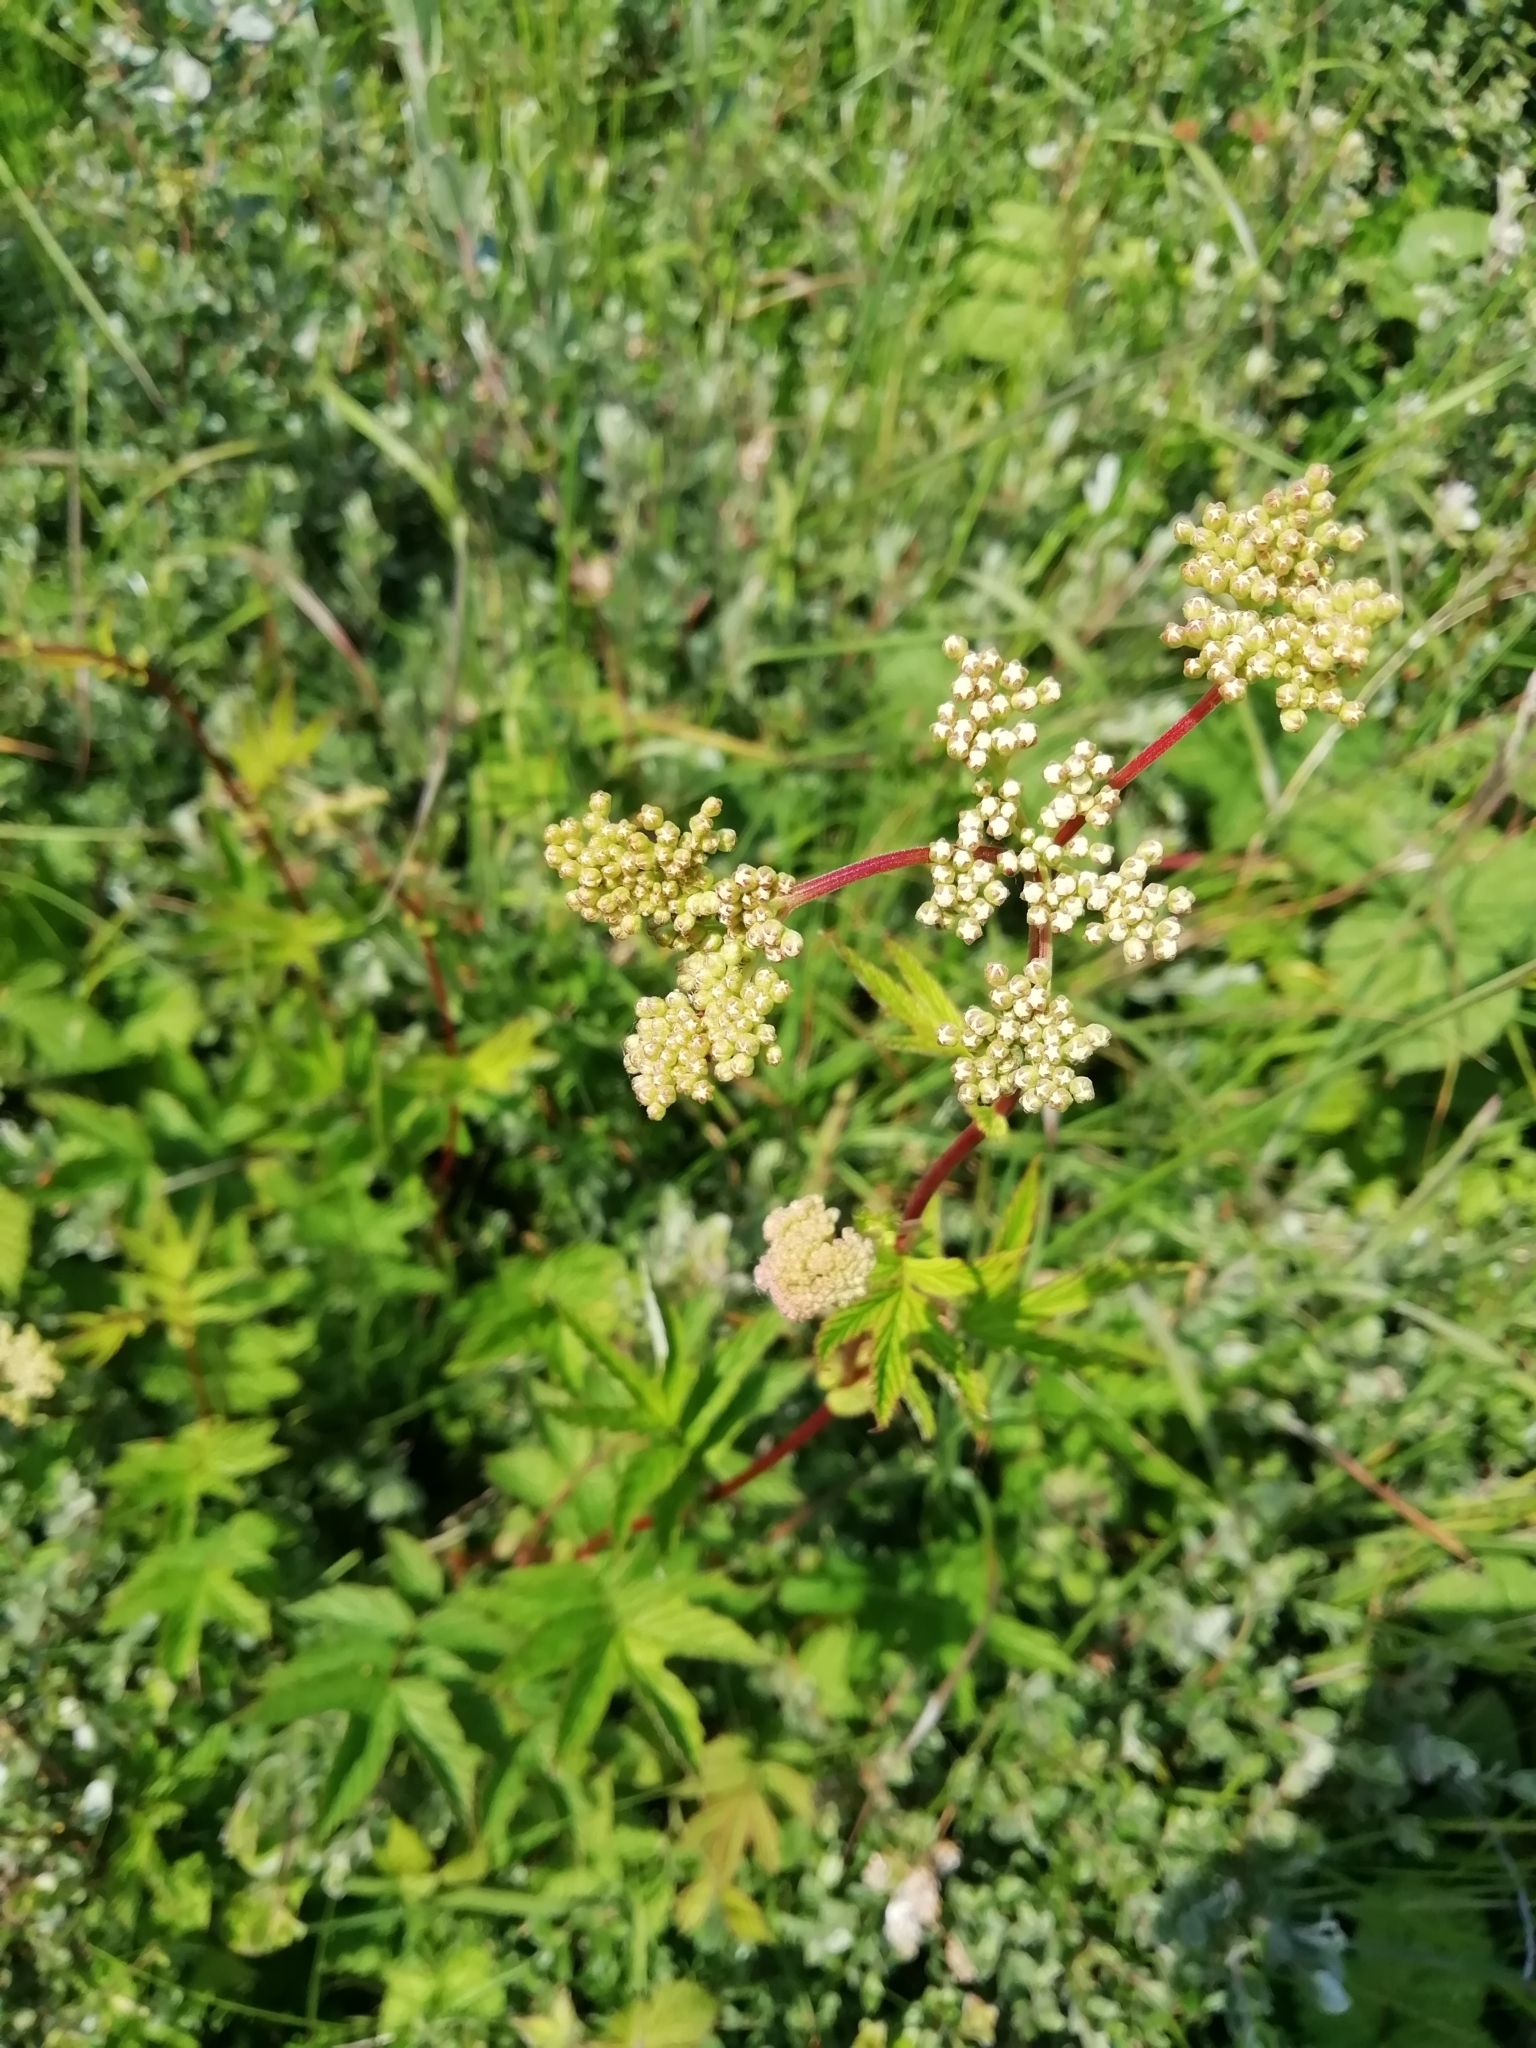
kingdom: Plantae
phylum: Tracheophyta
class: Magnoliopsida
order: Rosales
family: Rosaceae
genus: Filipendula
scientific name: Filipendula ulmaria
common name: Meadowsweet
